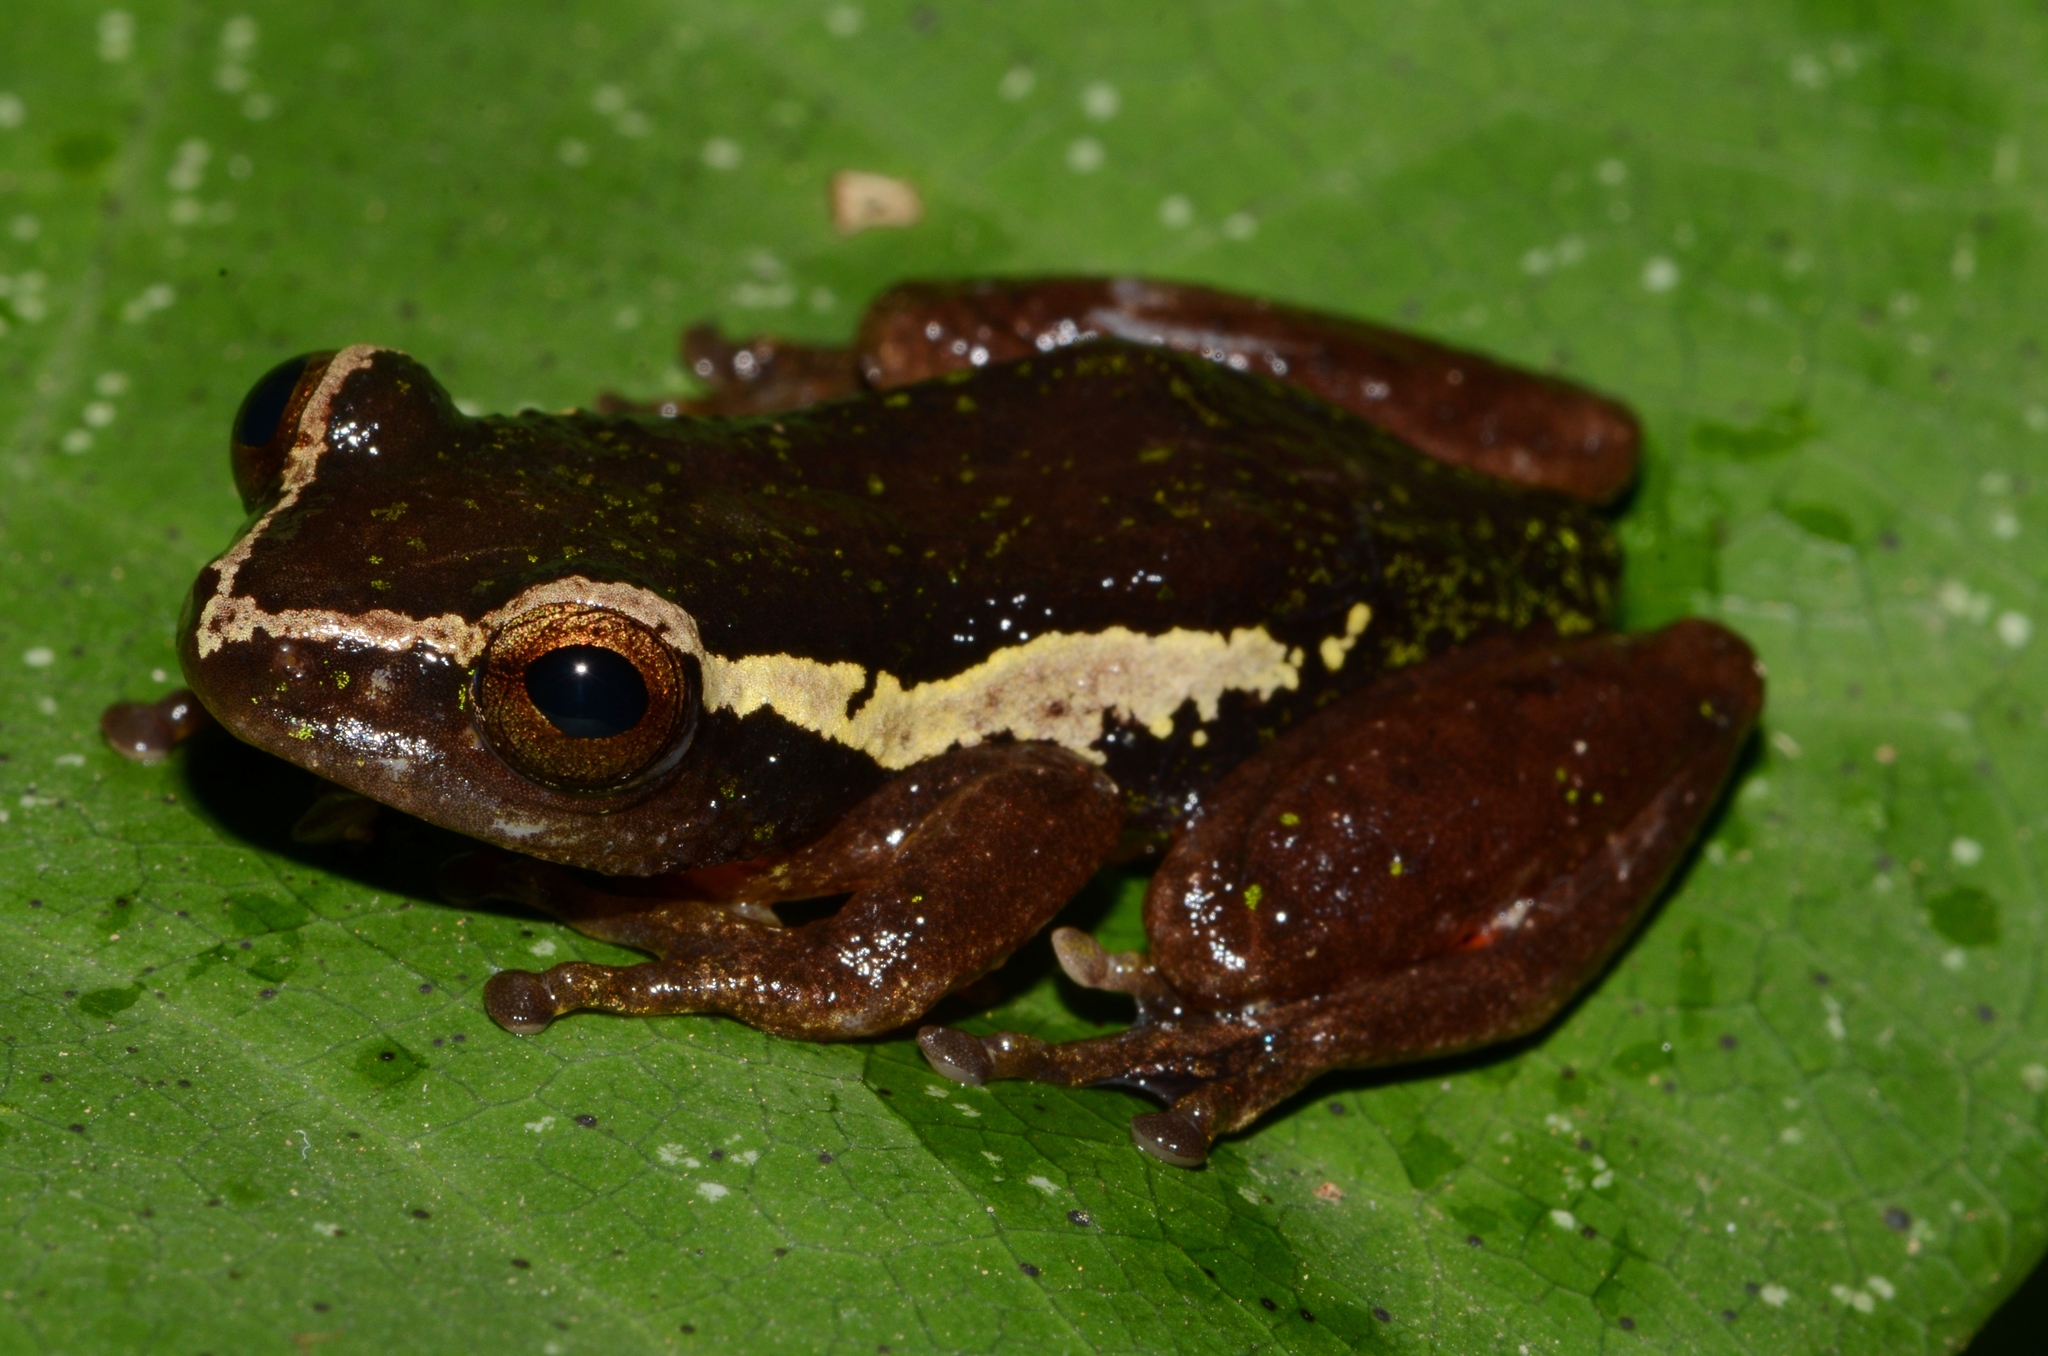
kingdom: Animalia
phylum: Chordata
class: Amphibia
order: Anura
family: Hyperoliidae
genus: Hyperolius
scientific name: Hyperolius platyceps
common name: Benito river reed frog
